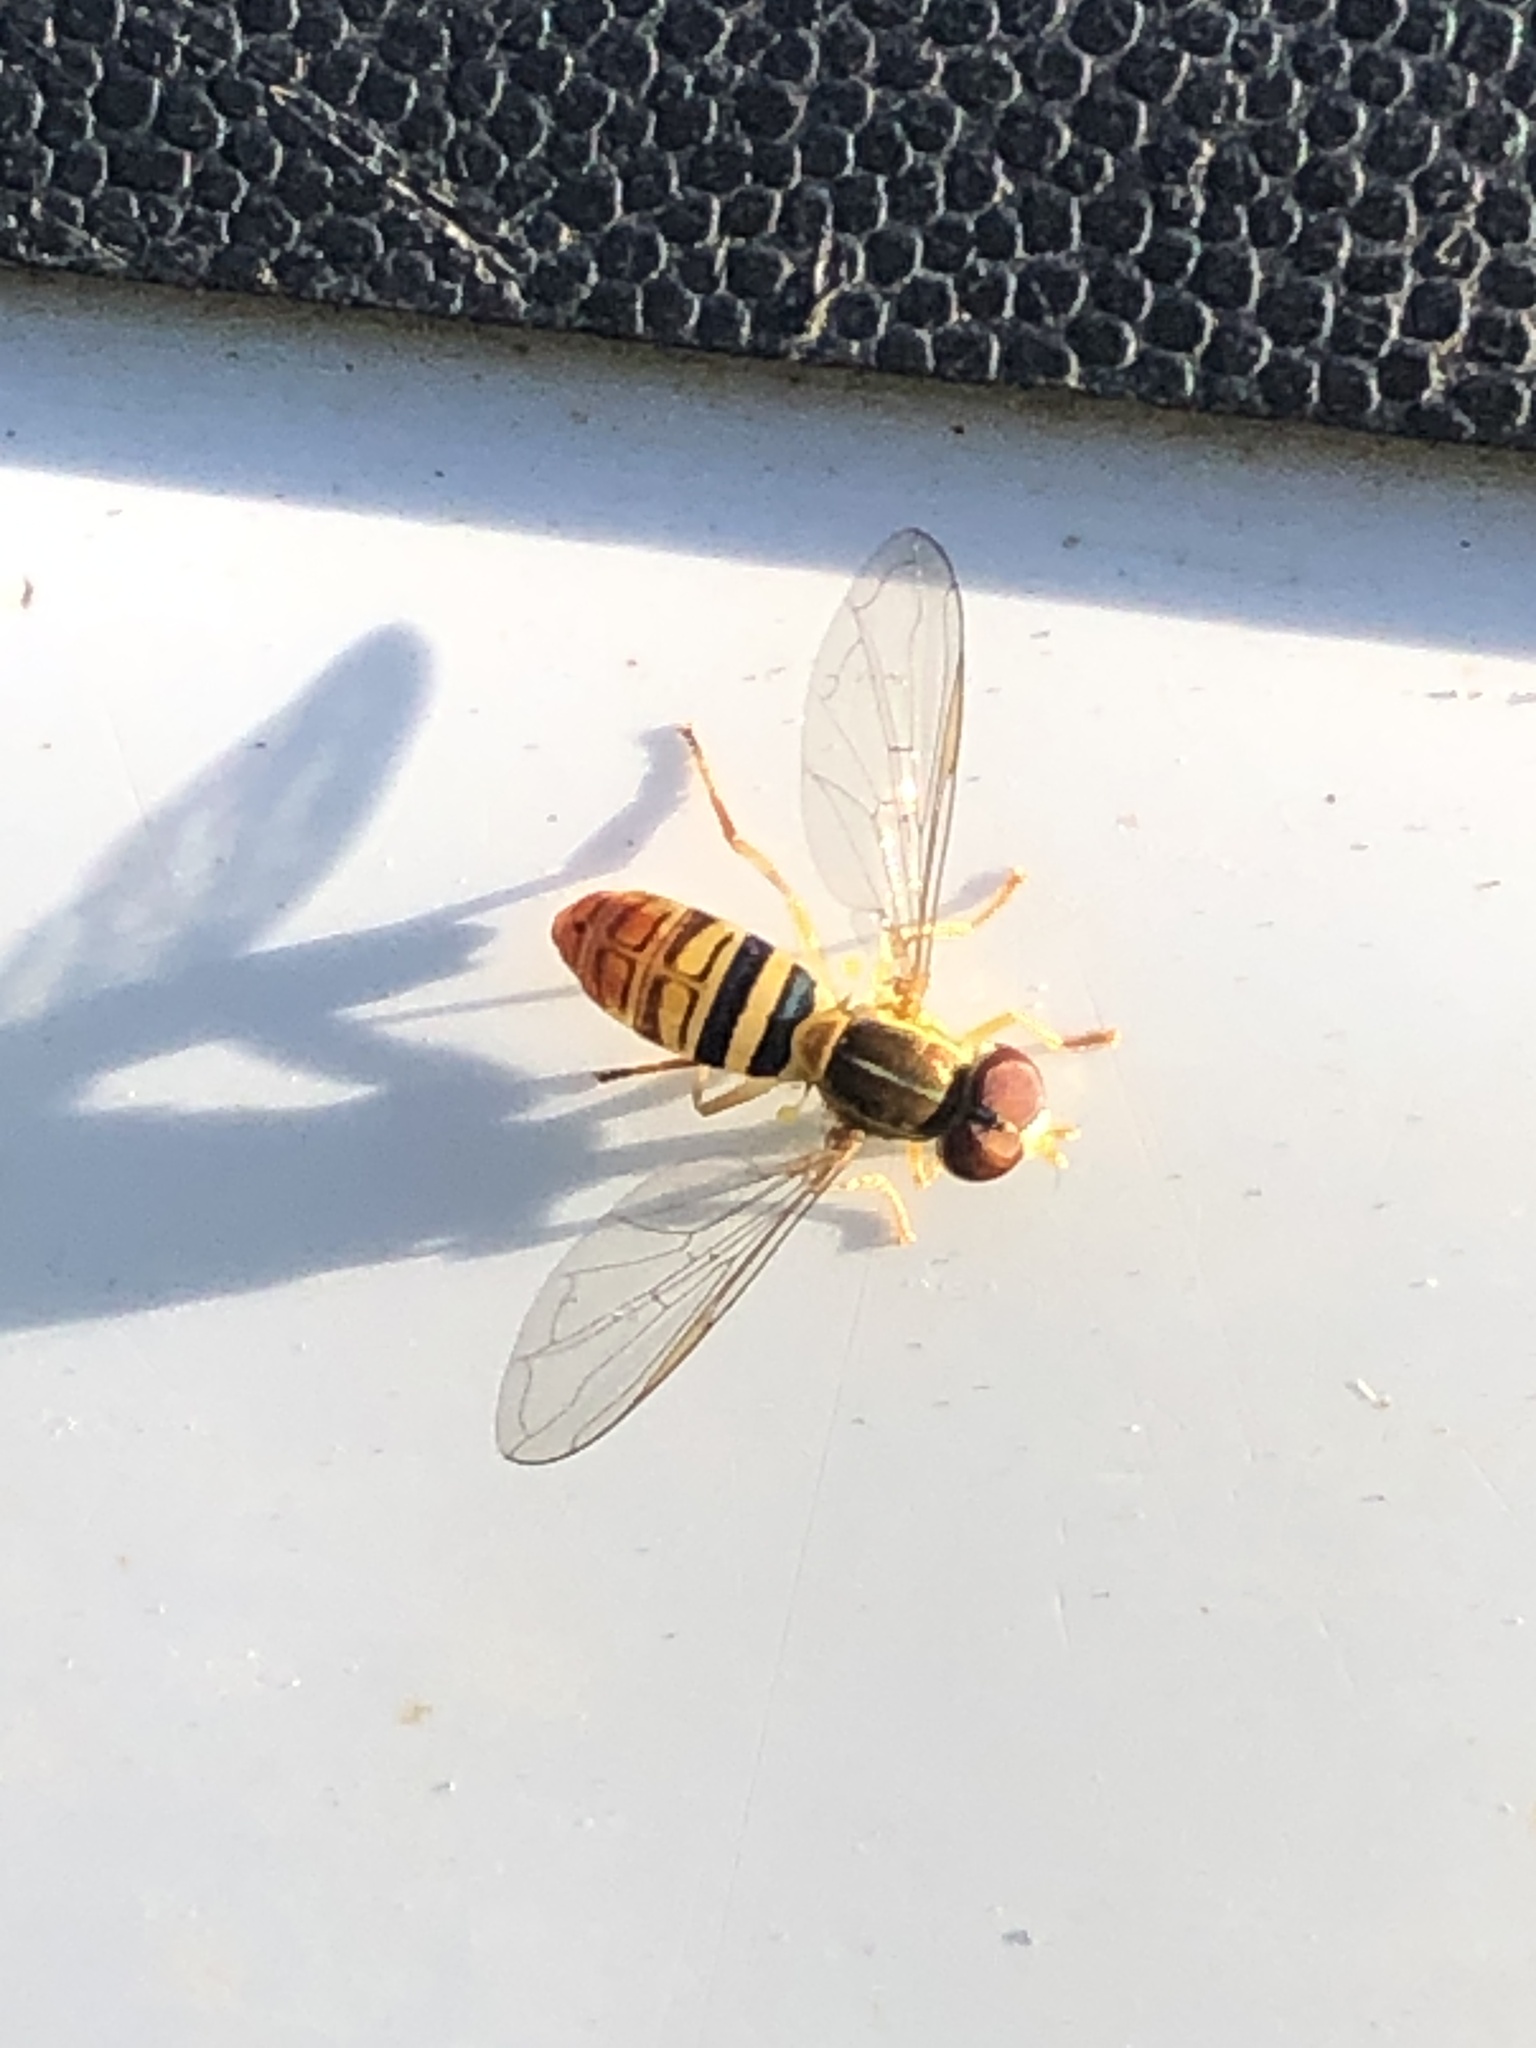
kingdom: Animalia
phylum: Arthropoda
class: Insecta
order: Diptera
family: Syrphidae
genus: Toxomerus
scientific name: Toxomerus politus
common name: Maize calligrapher
